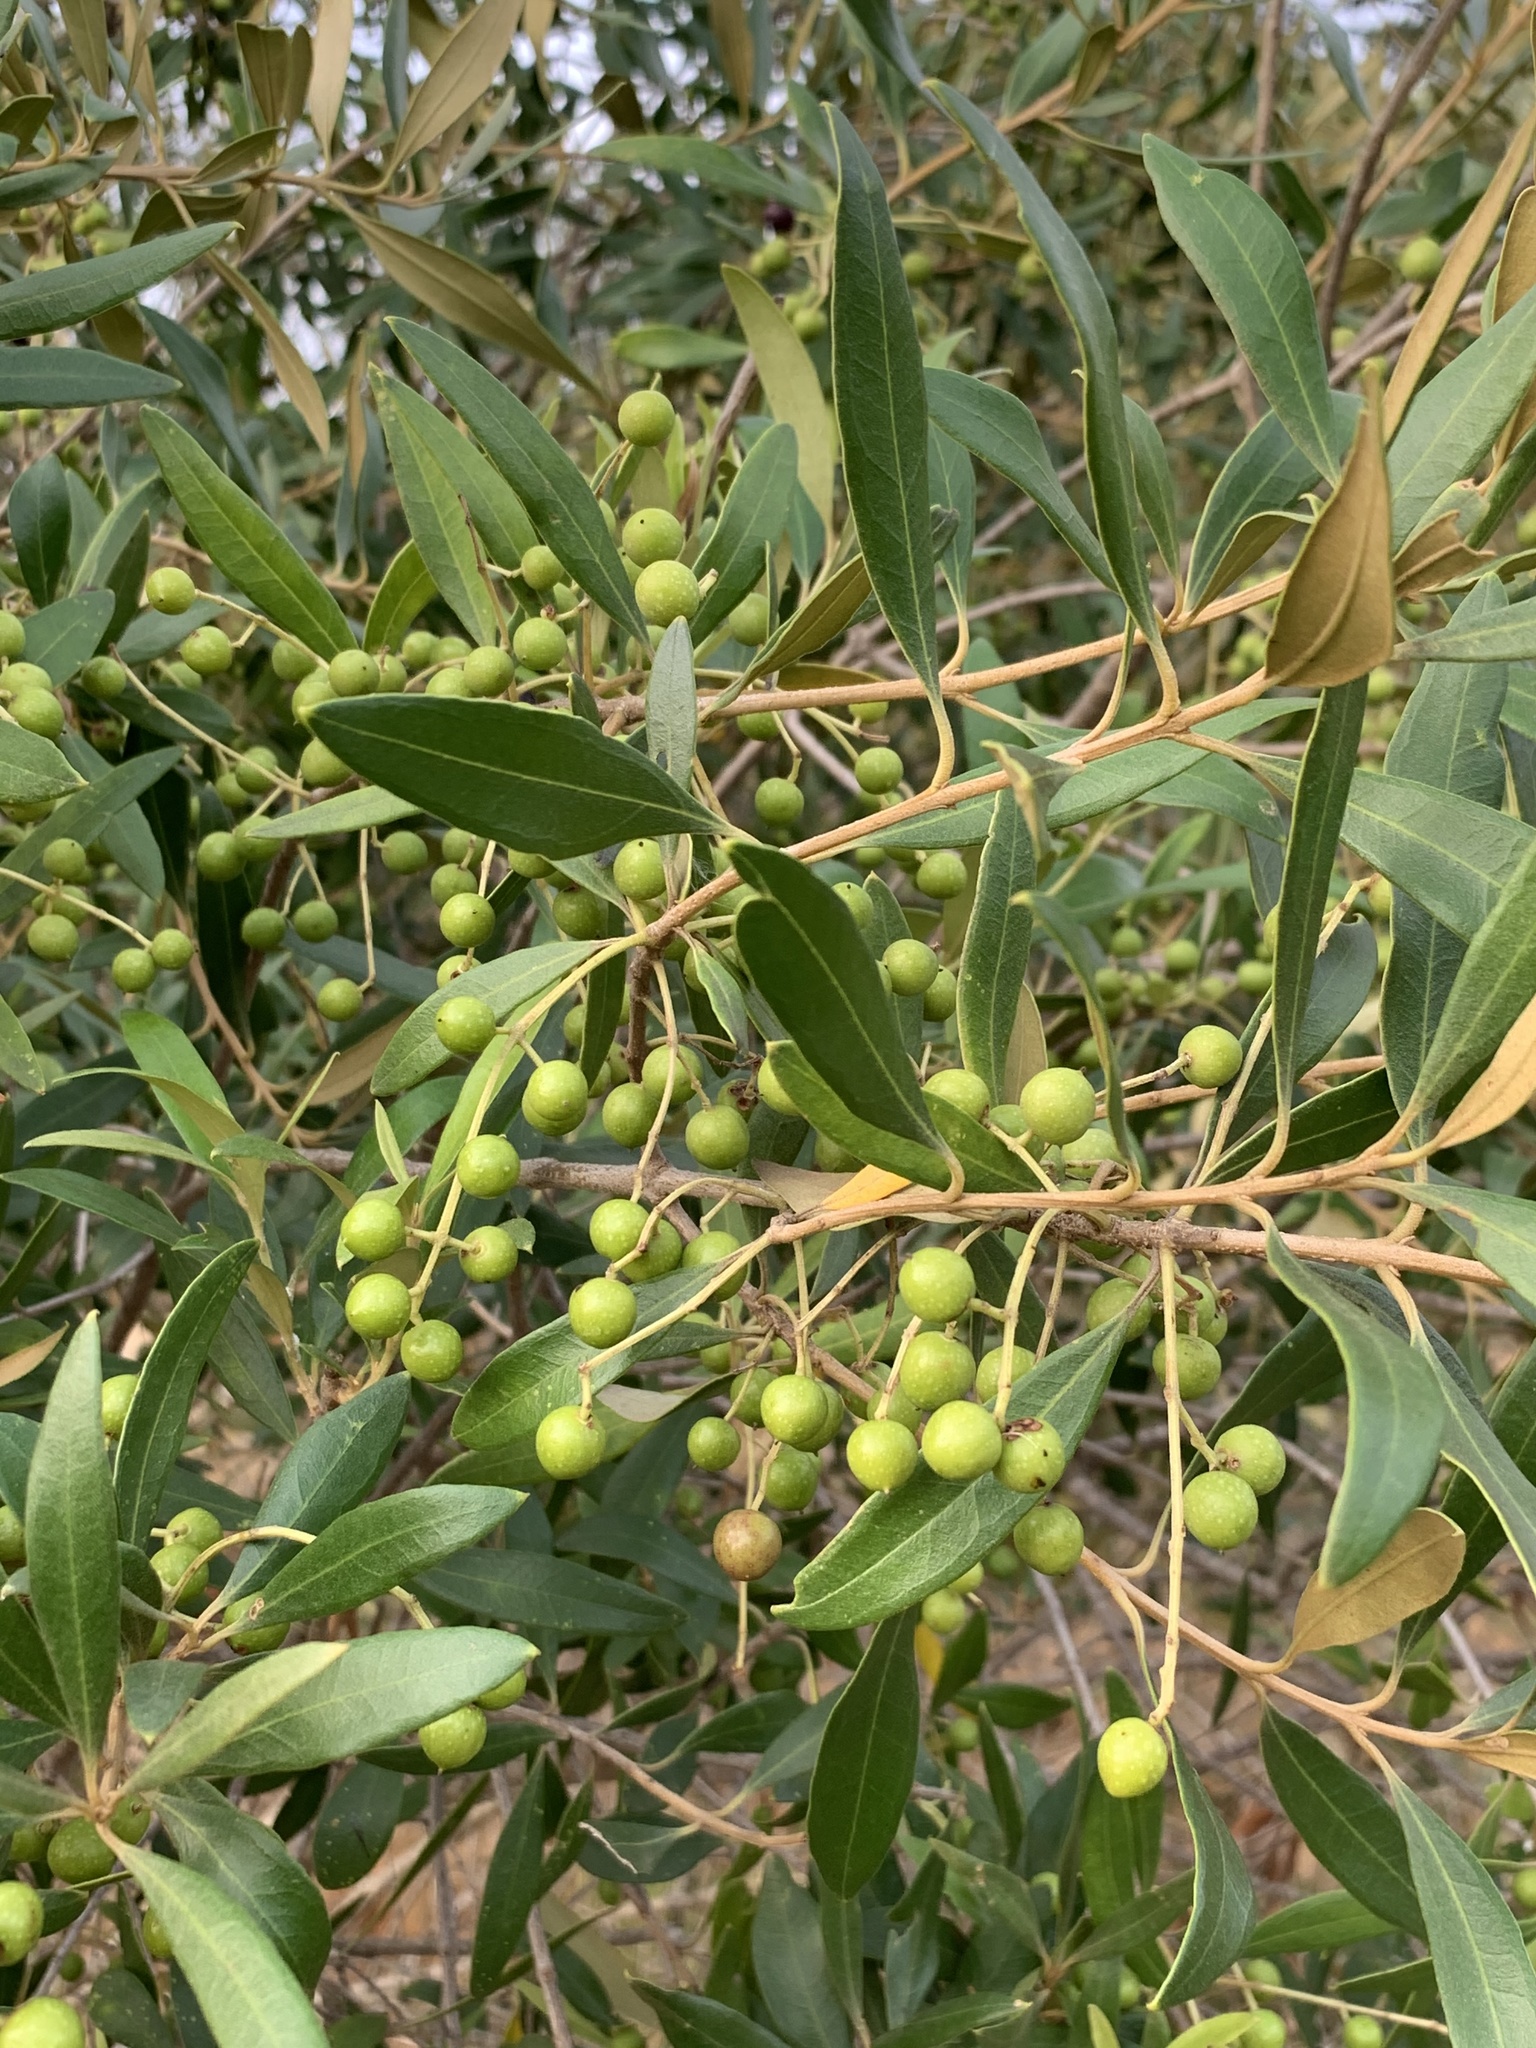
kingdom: Plantae
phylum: Tracheophyta
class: Magnoliopsida
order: Lamiales
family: Oleaceae
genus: Olea
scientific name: Olea europaea
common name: Olive
